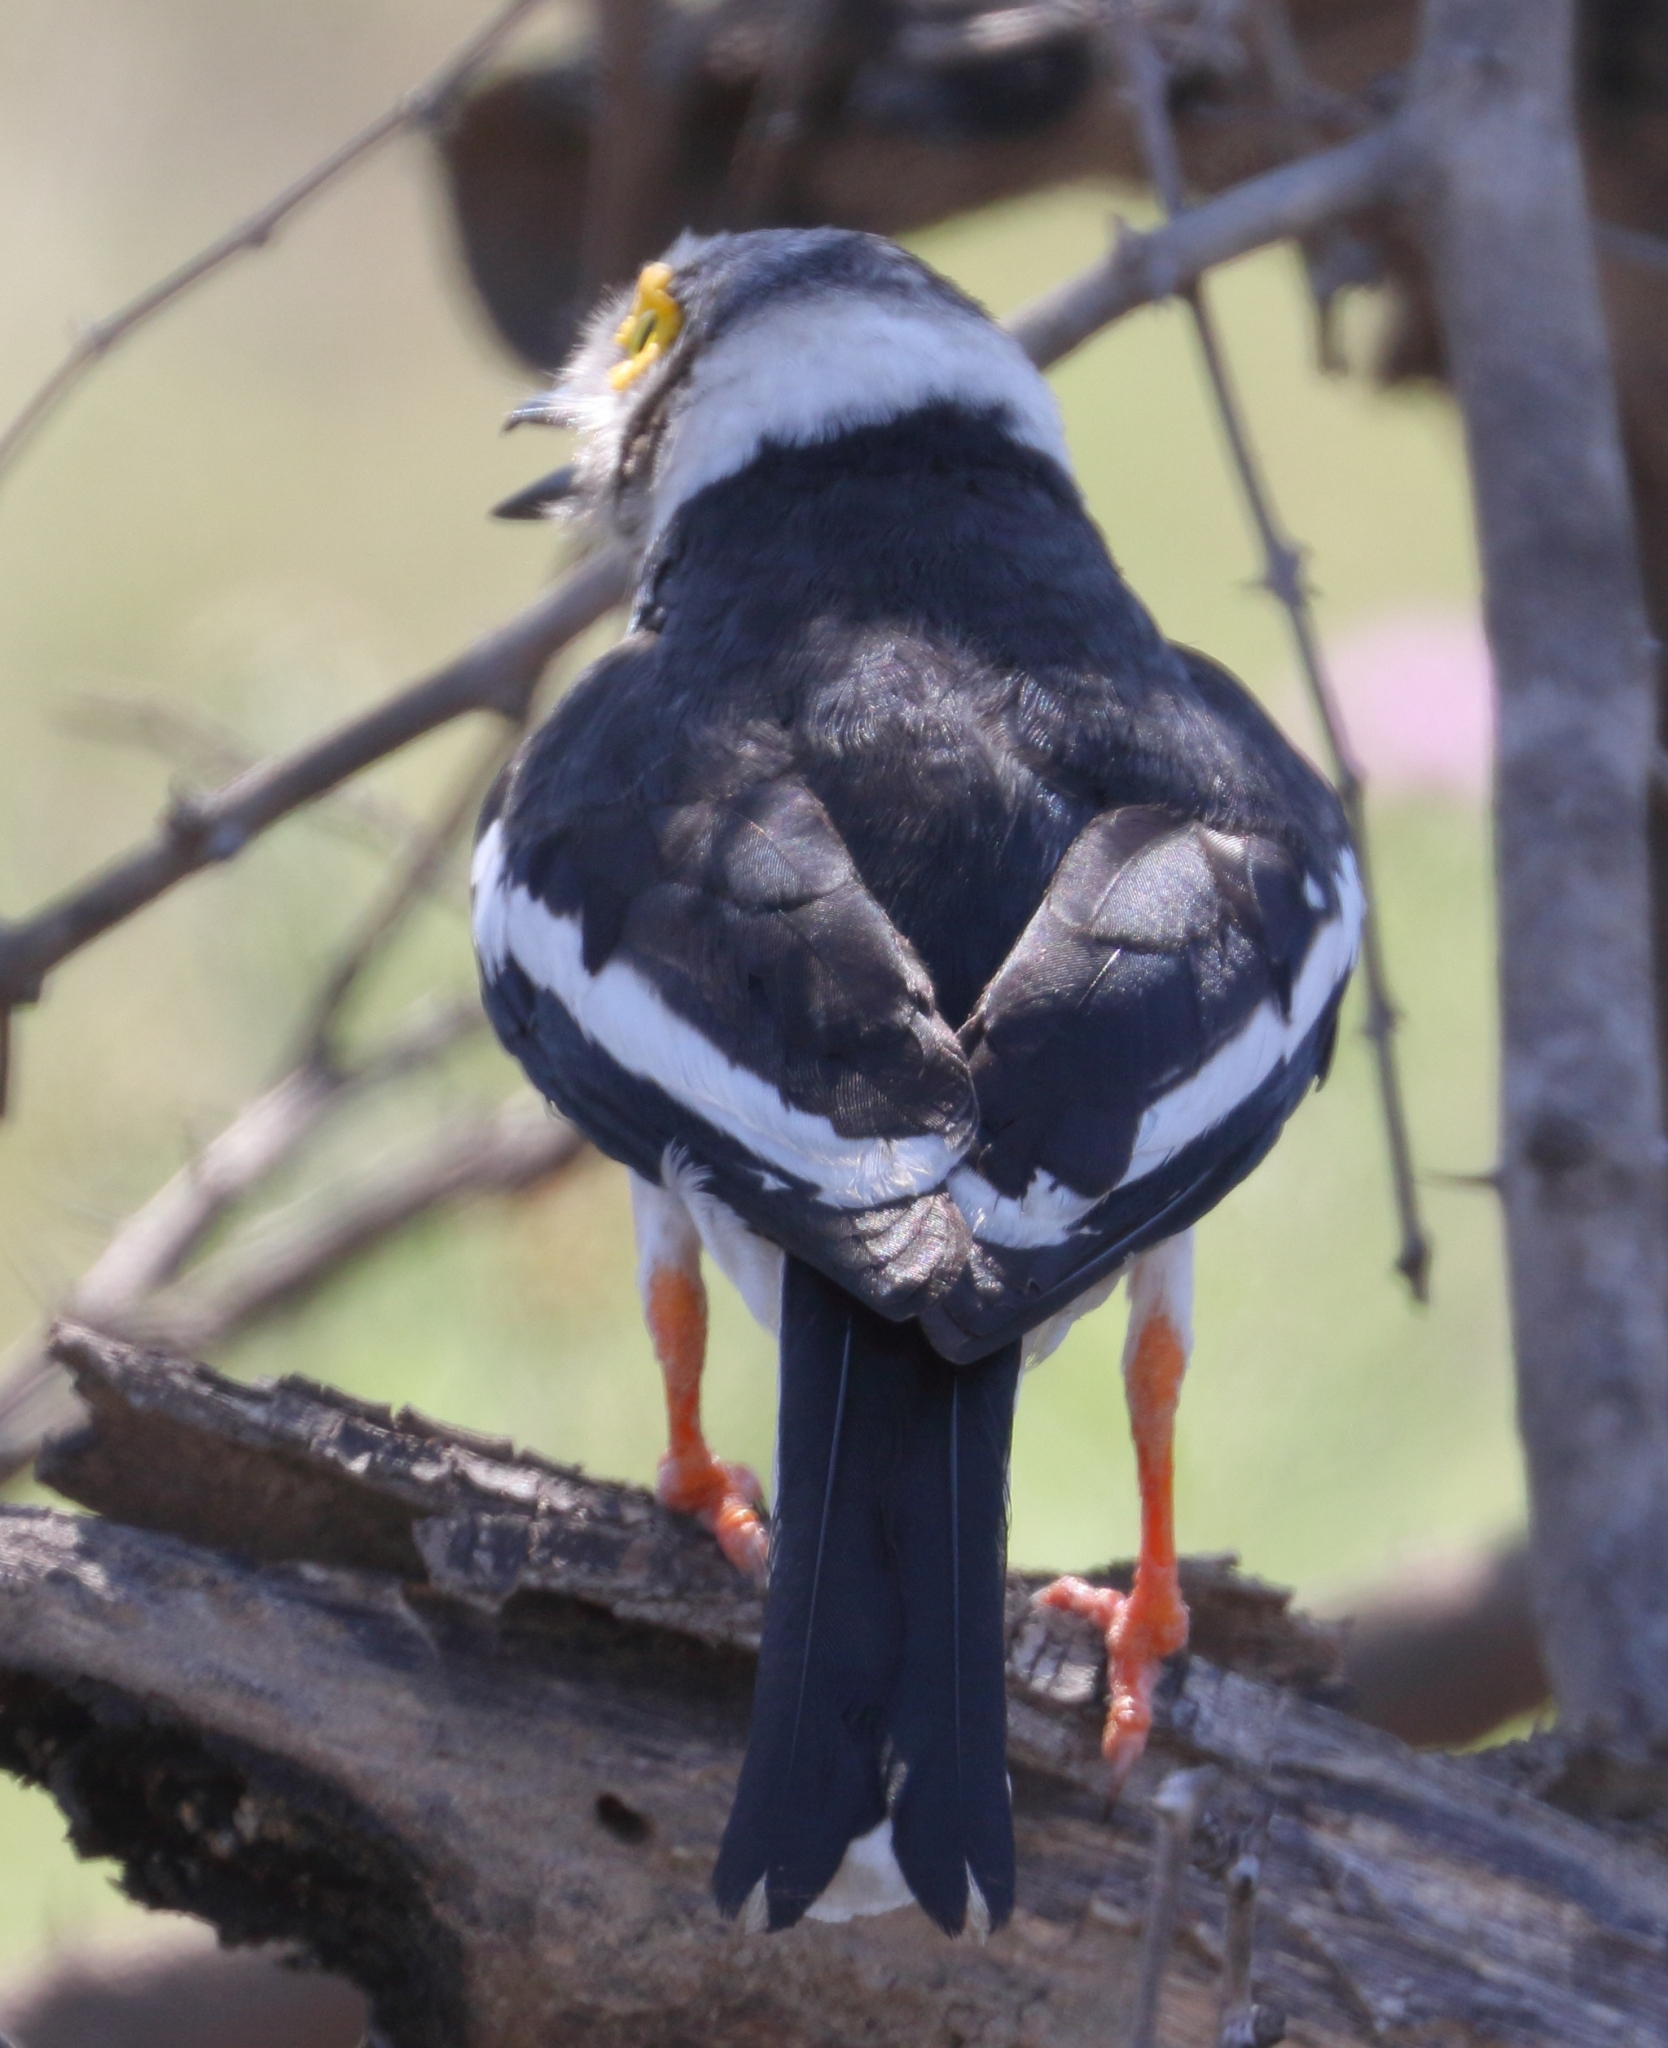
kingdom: Animalia
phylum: Chordata
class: Aves
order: Passeriformes
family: Prionopidae
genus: Prionops
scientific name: Prionops plumatus
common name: White-crested helmetshrike
